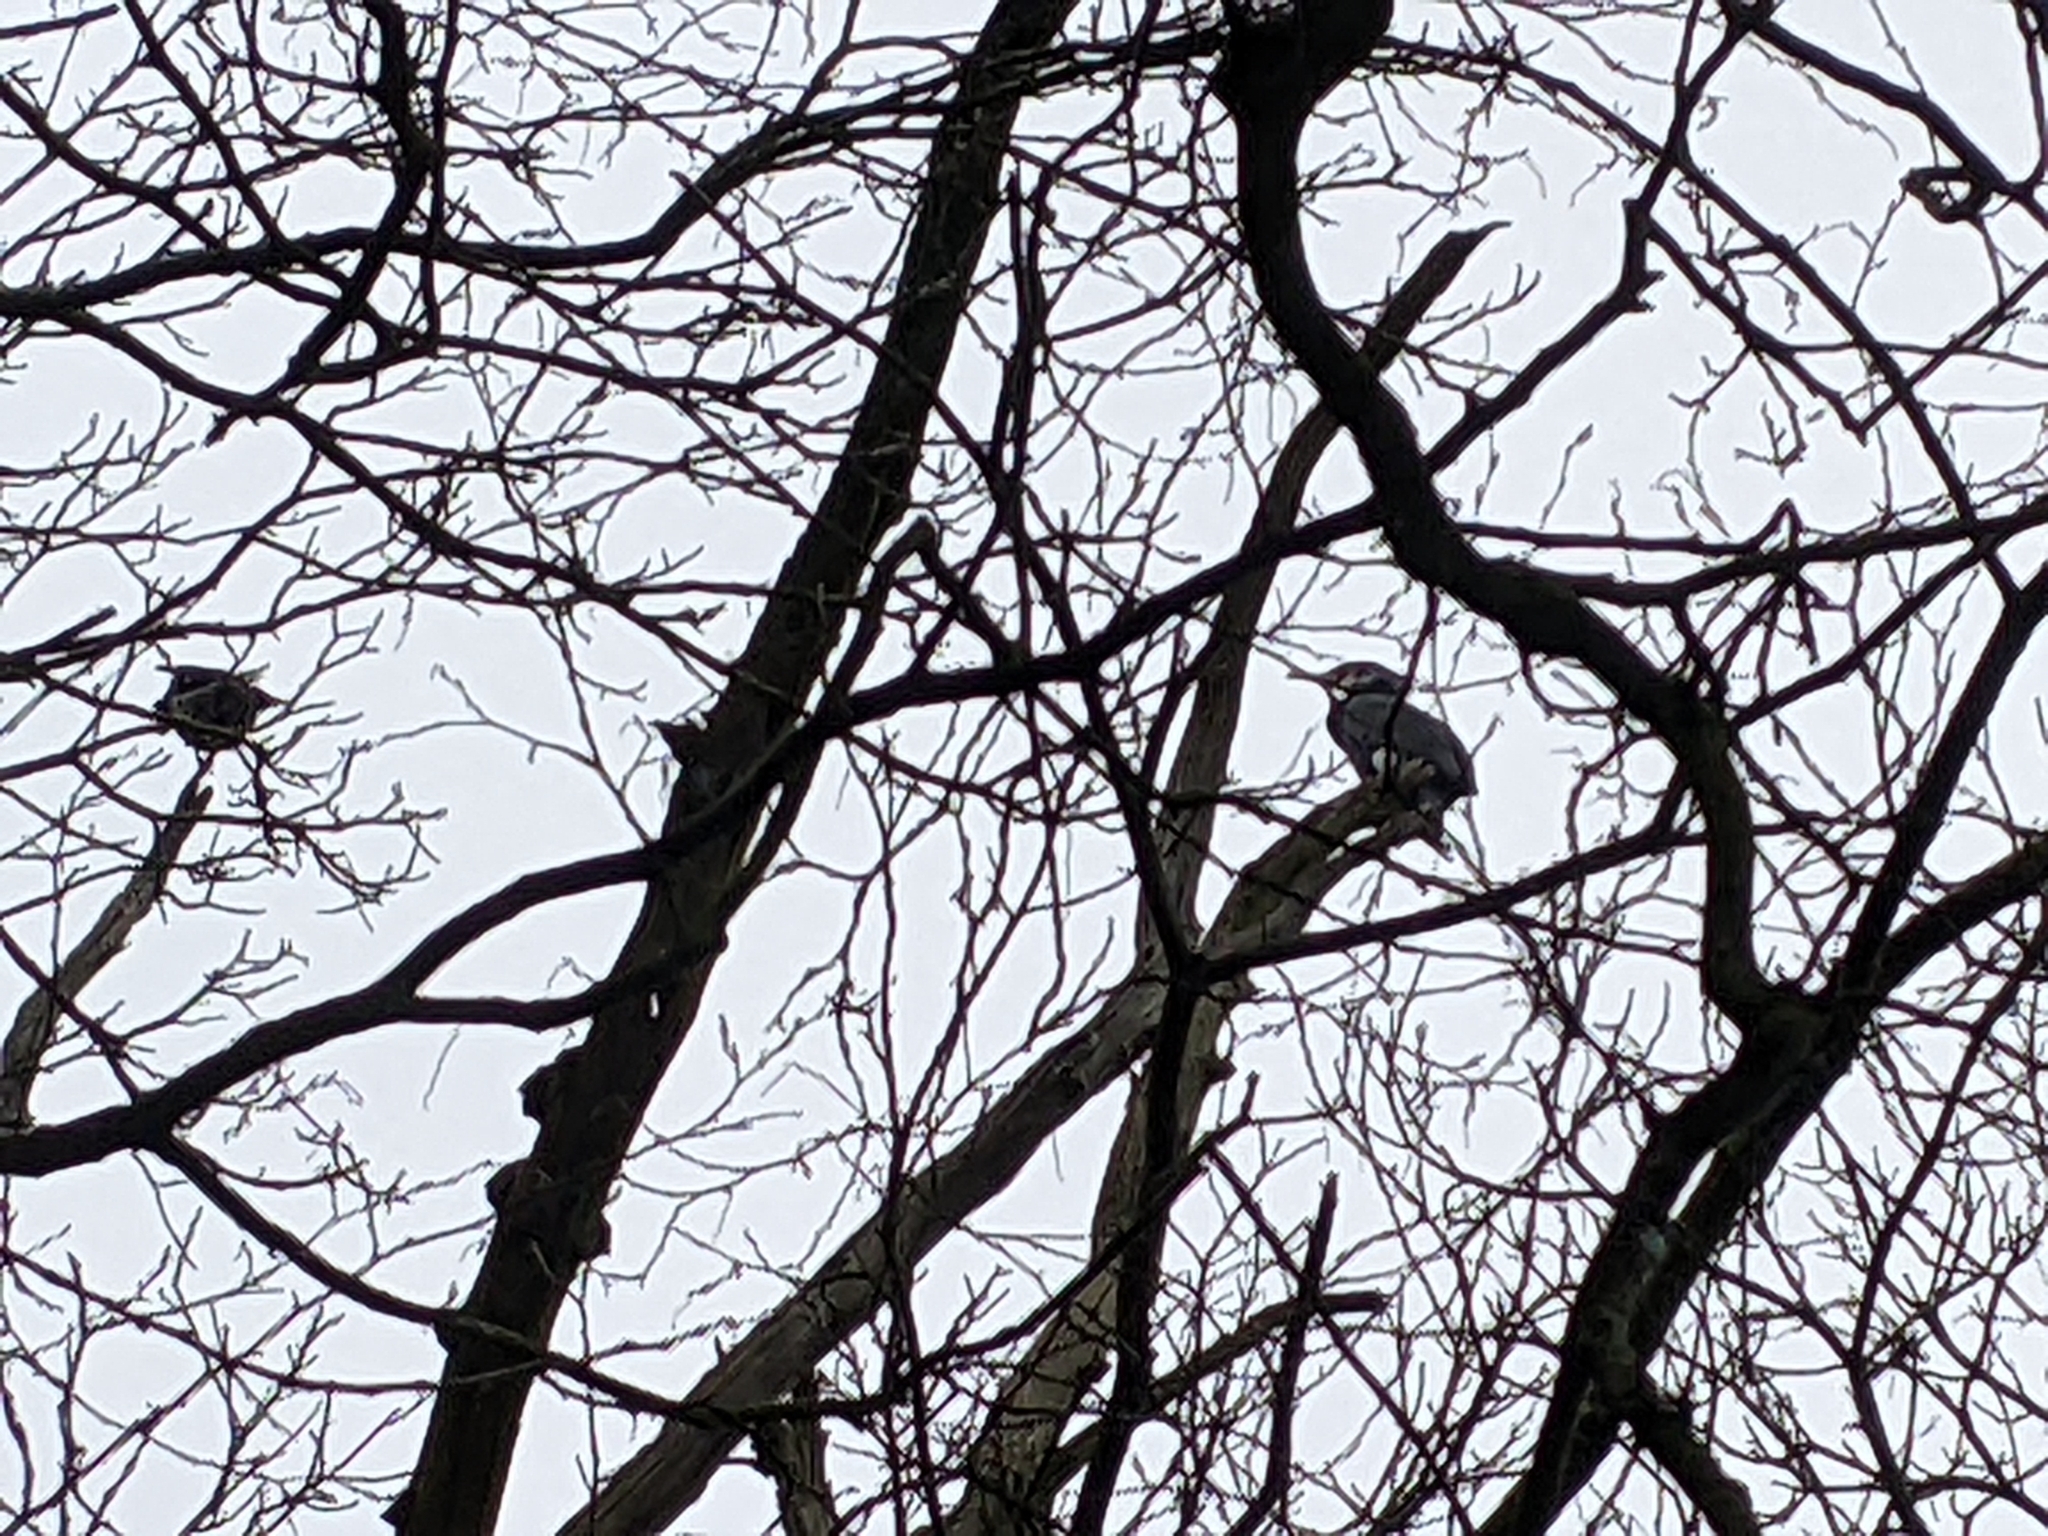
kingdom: Animalia
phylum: Chordata
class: Aves
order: Suliformes
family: Phalacrocoracidae
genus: Phalacrocorax
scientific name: Phalacrocorax carbo
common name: Great cormorant
